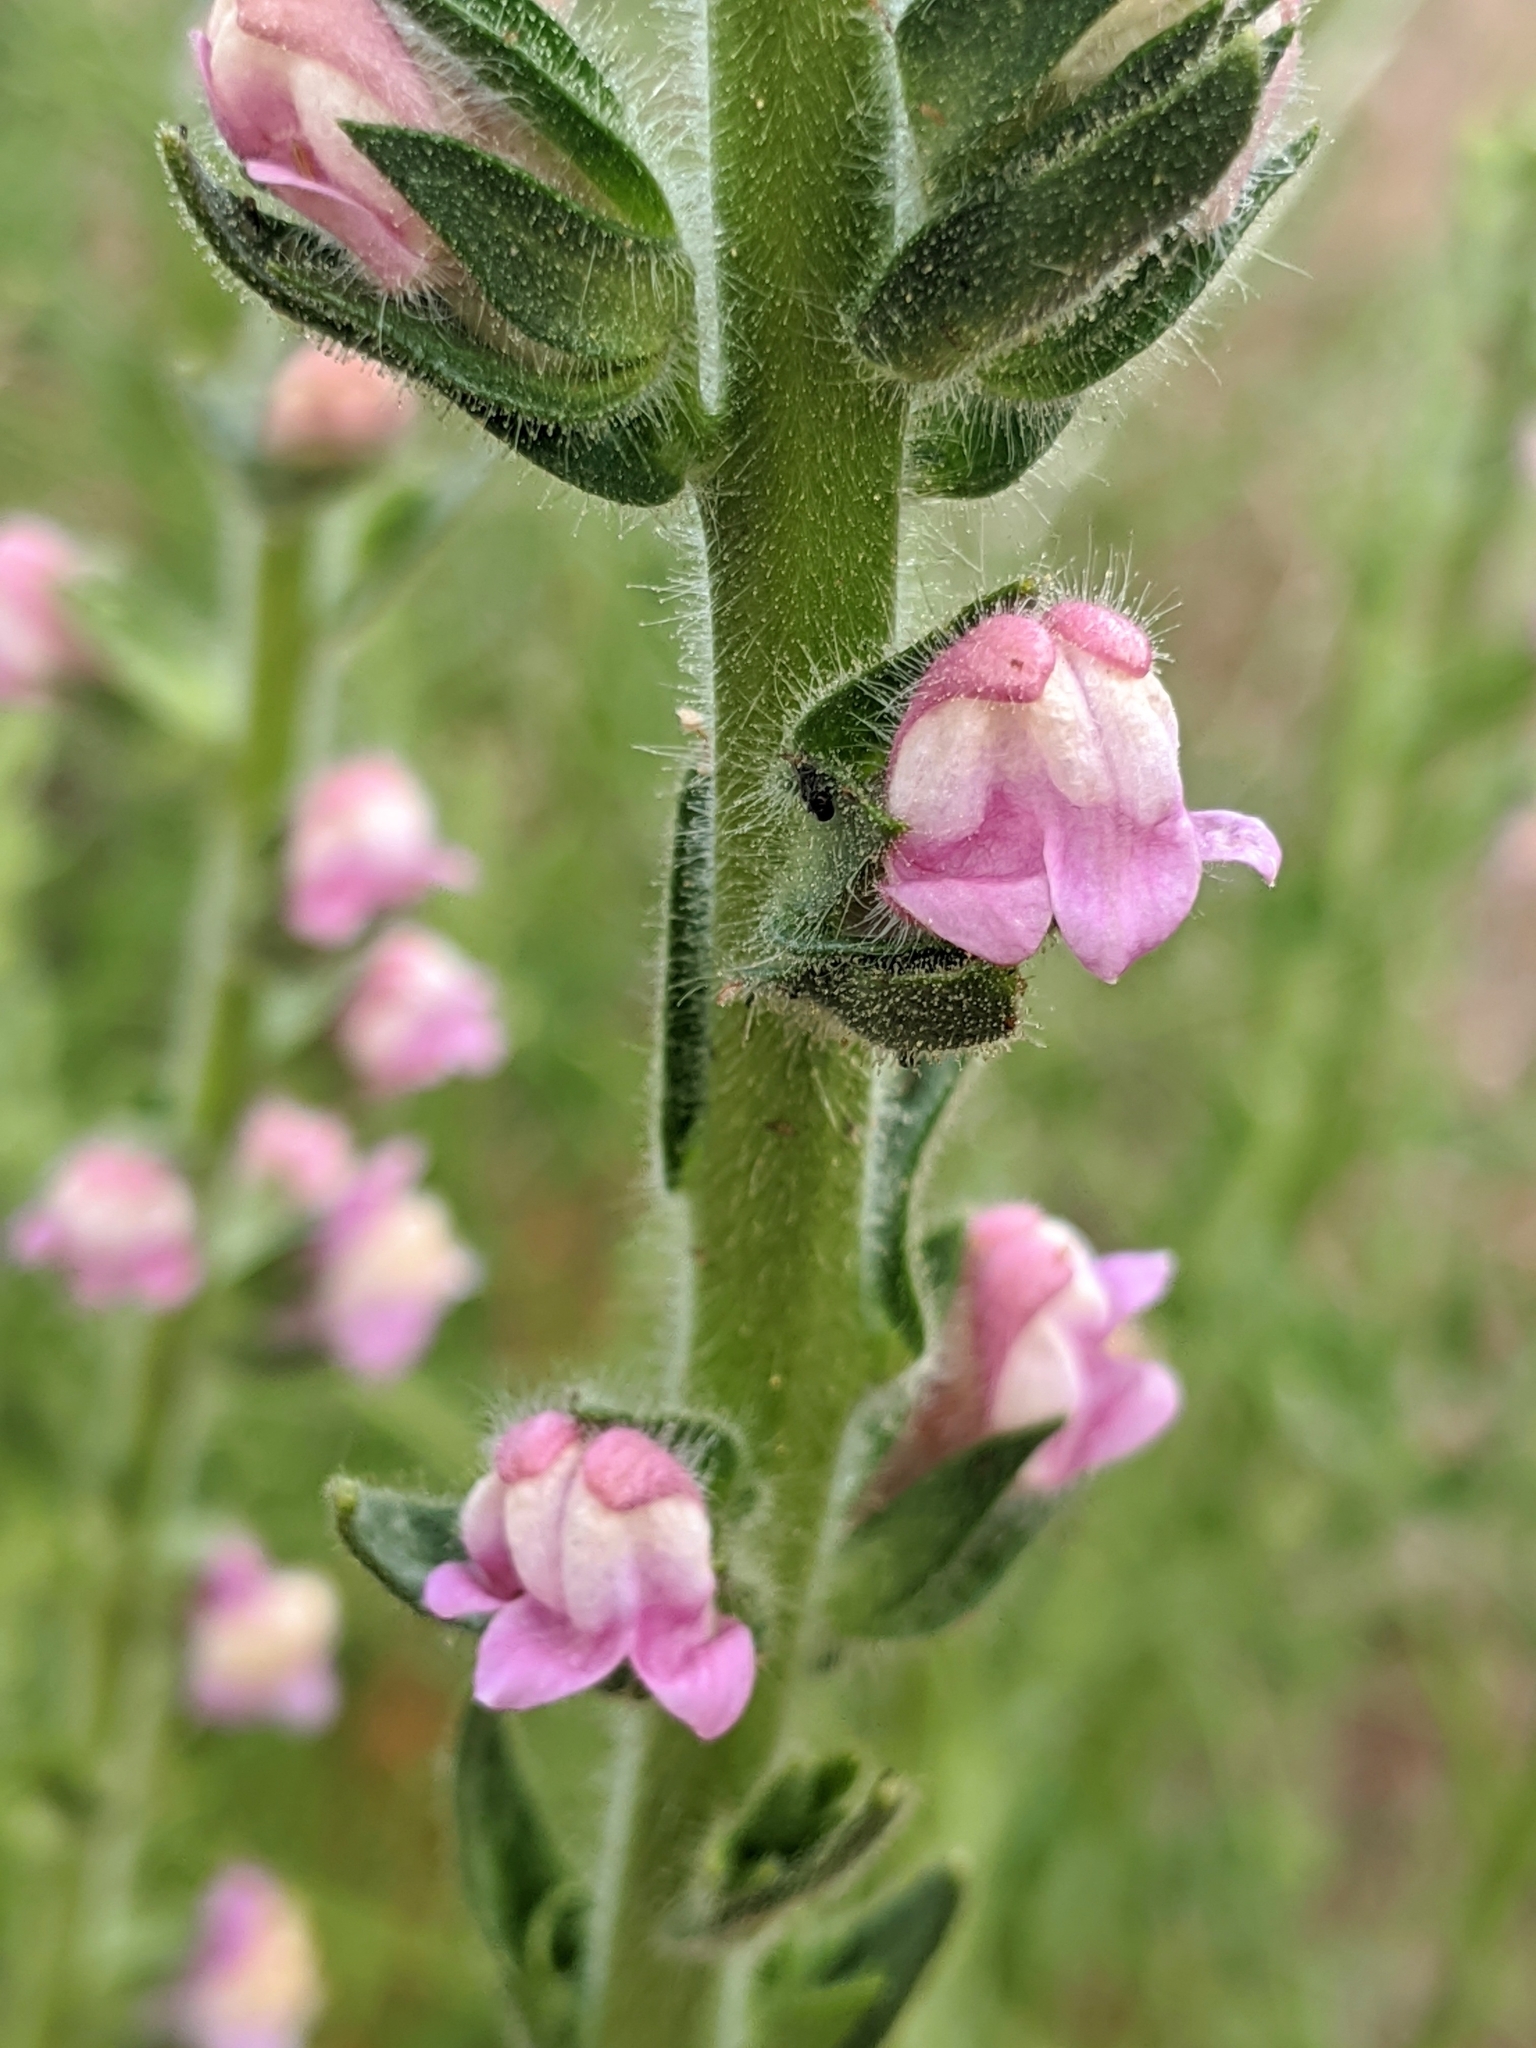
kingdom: Plantae
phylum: Tracheophyta
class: Magnoliopsida
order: Lamiales
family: Plantaginaceae
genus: Sairocarpus
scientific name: Sairocarpus multiflorus
